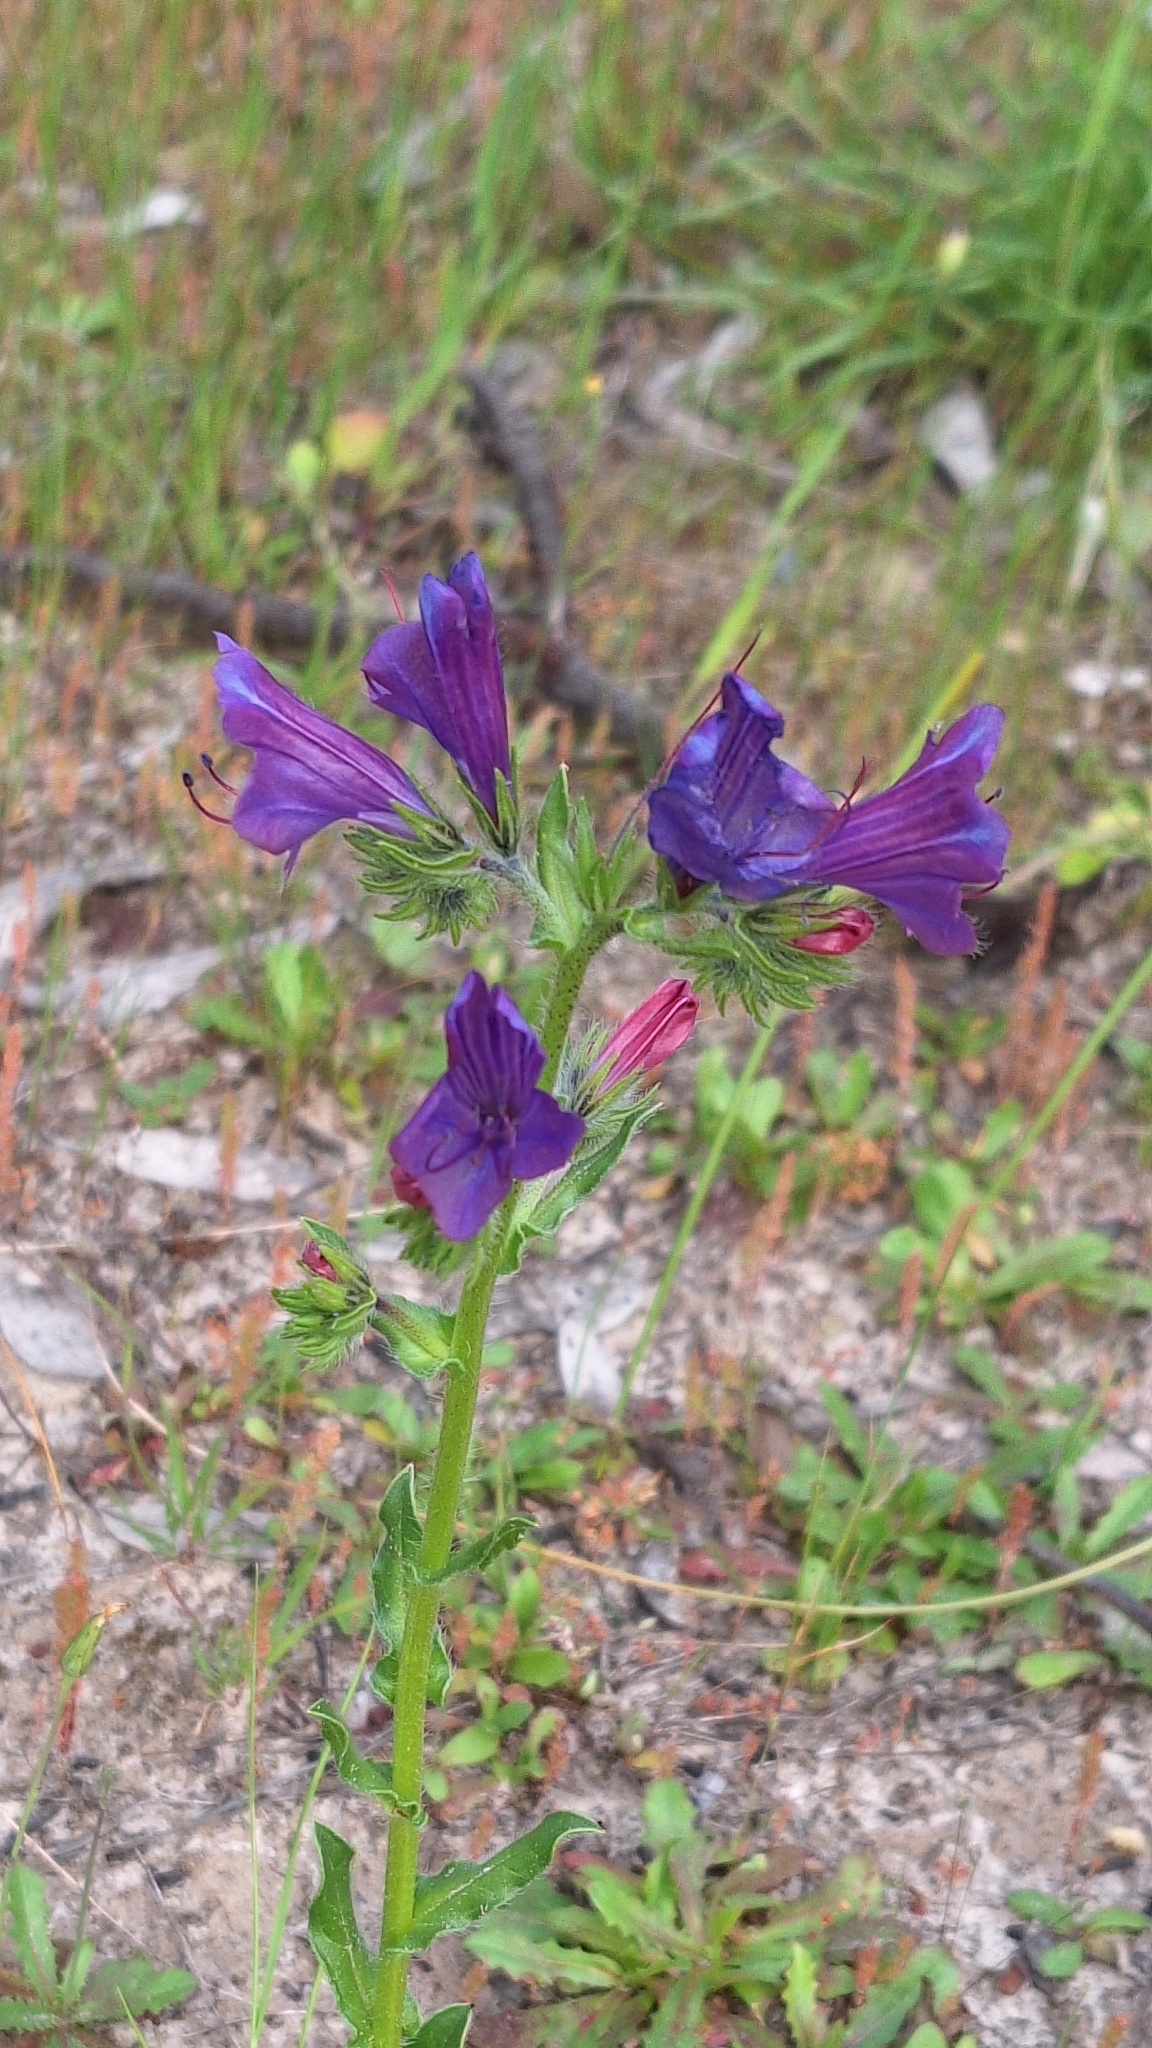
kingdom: Plantae
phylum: Tracheophyta
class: Magnoliopsida
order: Boraginales
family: Boraginaceae
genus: Echium
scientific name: Echium plantagineum
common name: Purple viper's-bugloss
